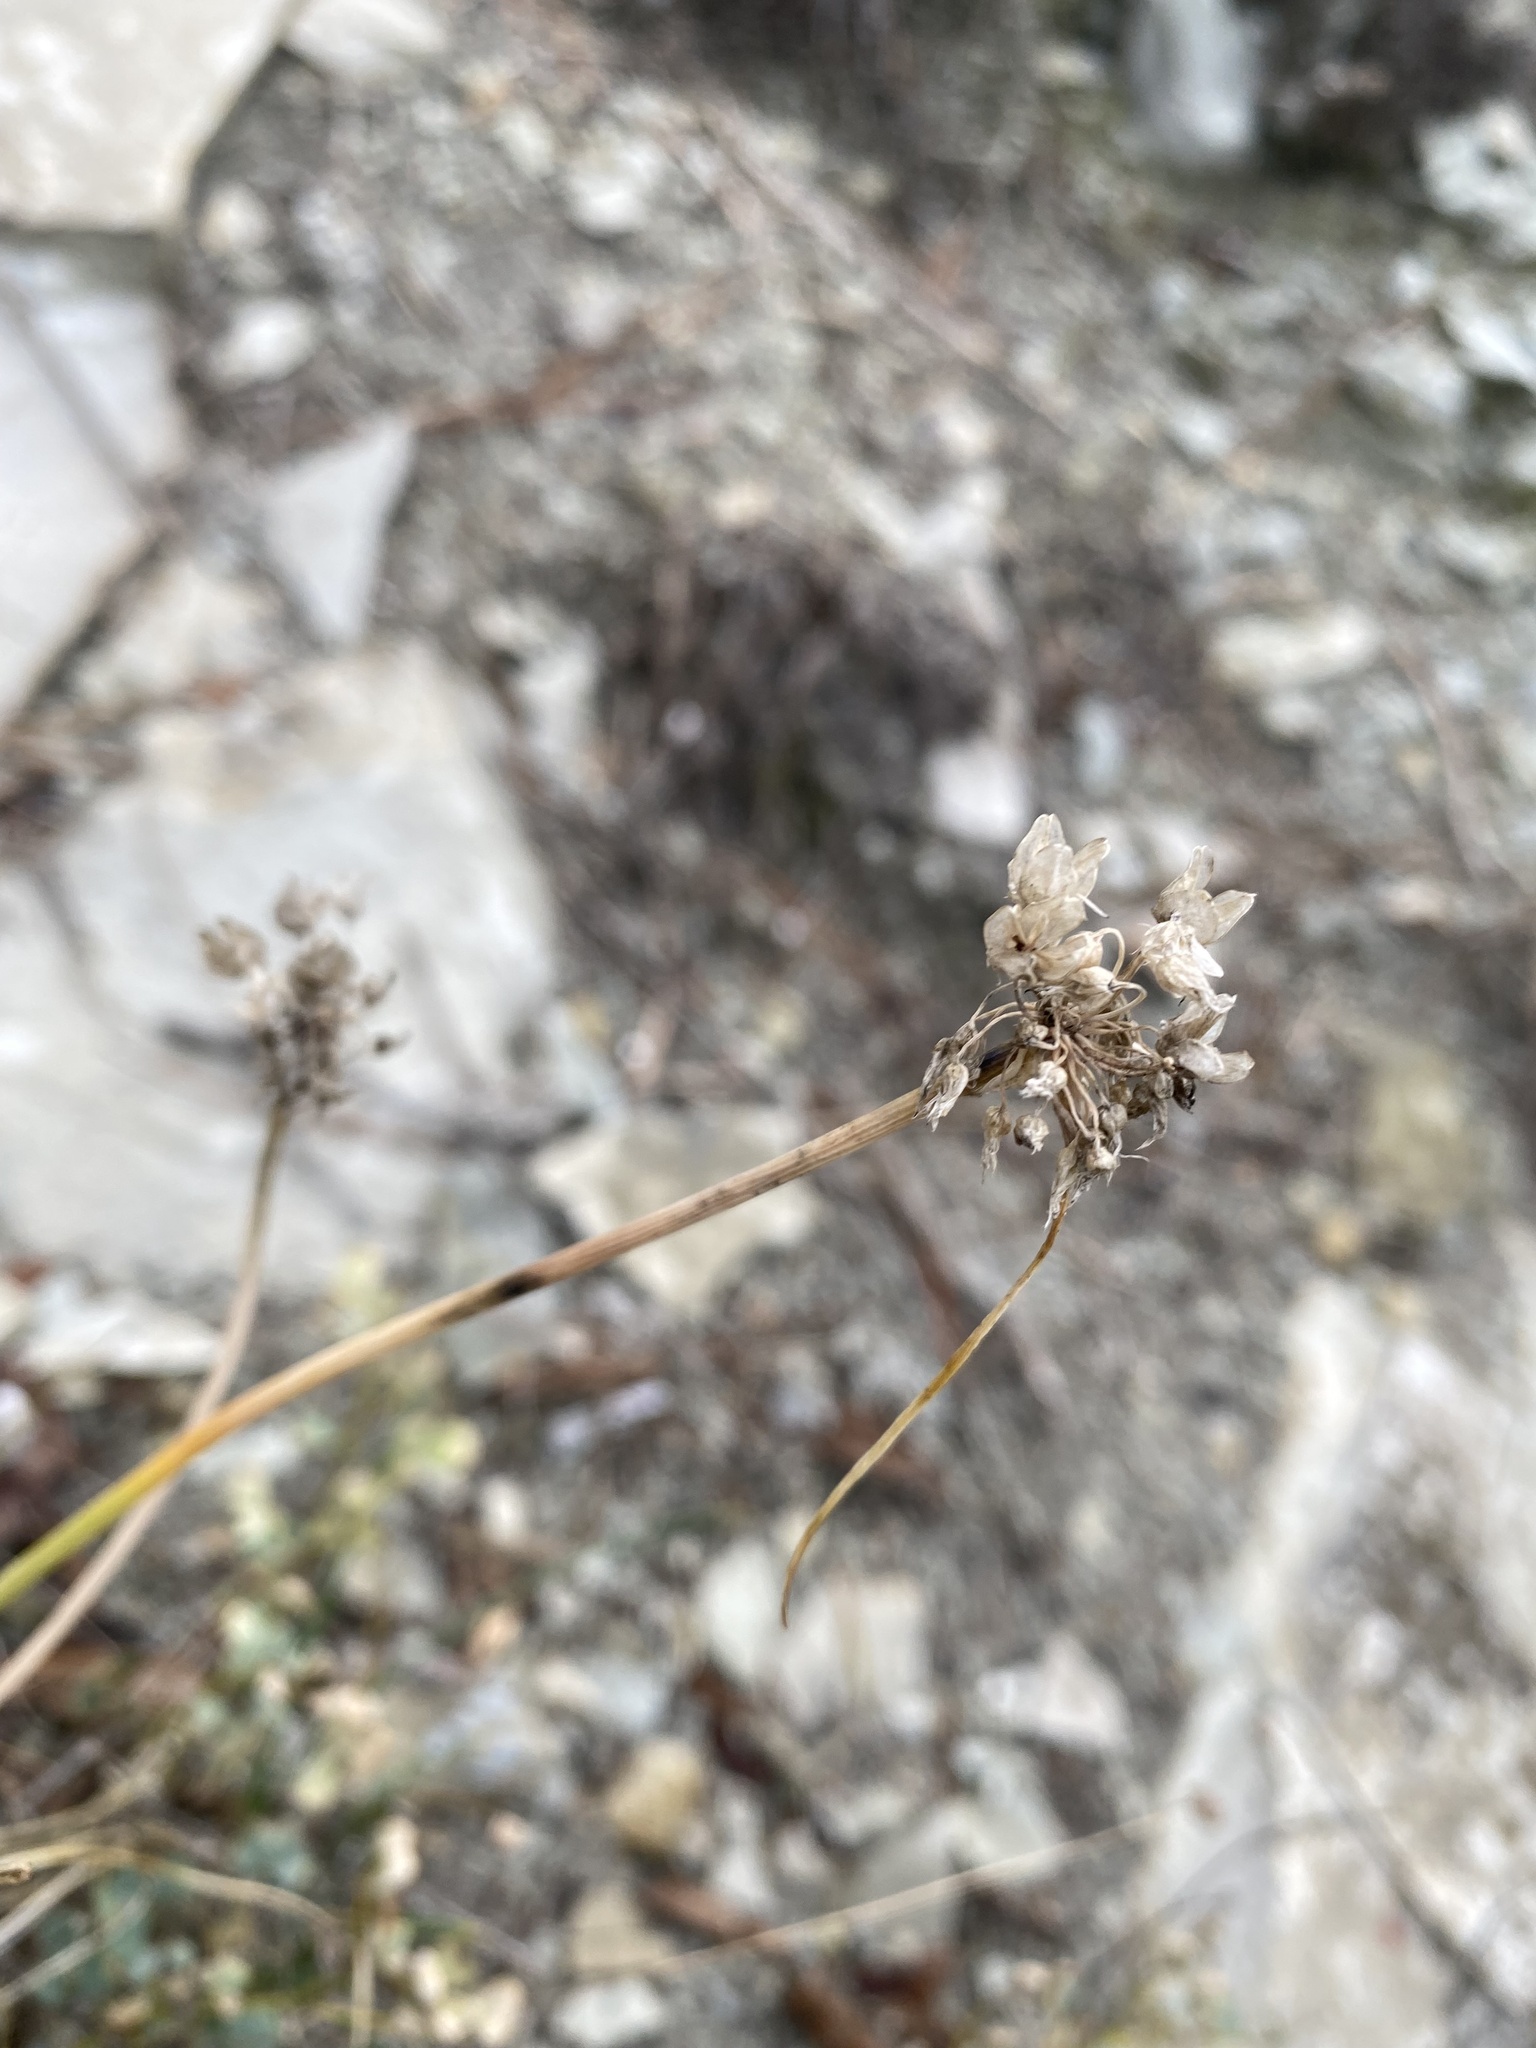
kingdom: Plantae
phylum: Tracheophyta
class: Liliopsida
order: Asparagales
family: Amaryllidaceae
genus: Allium
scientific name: Allium psebaicum
